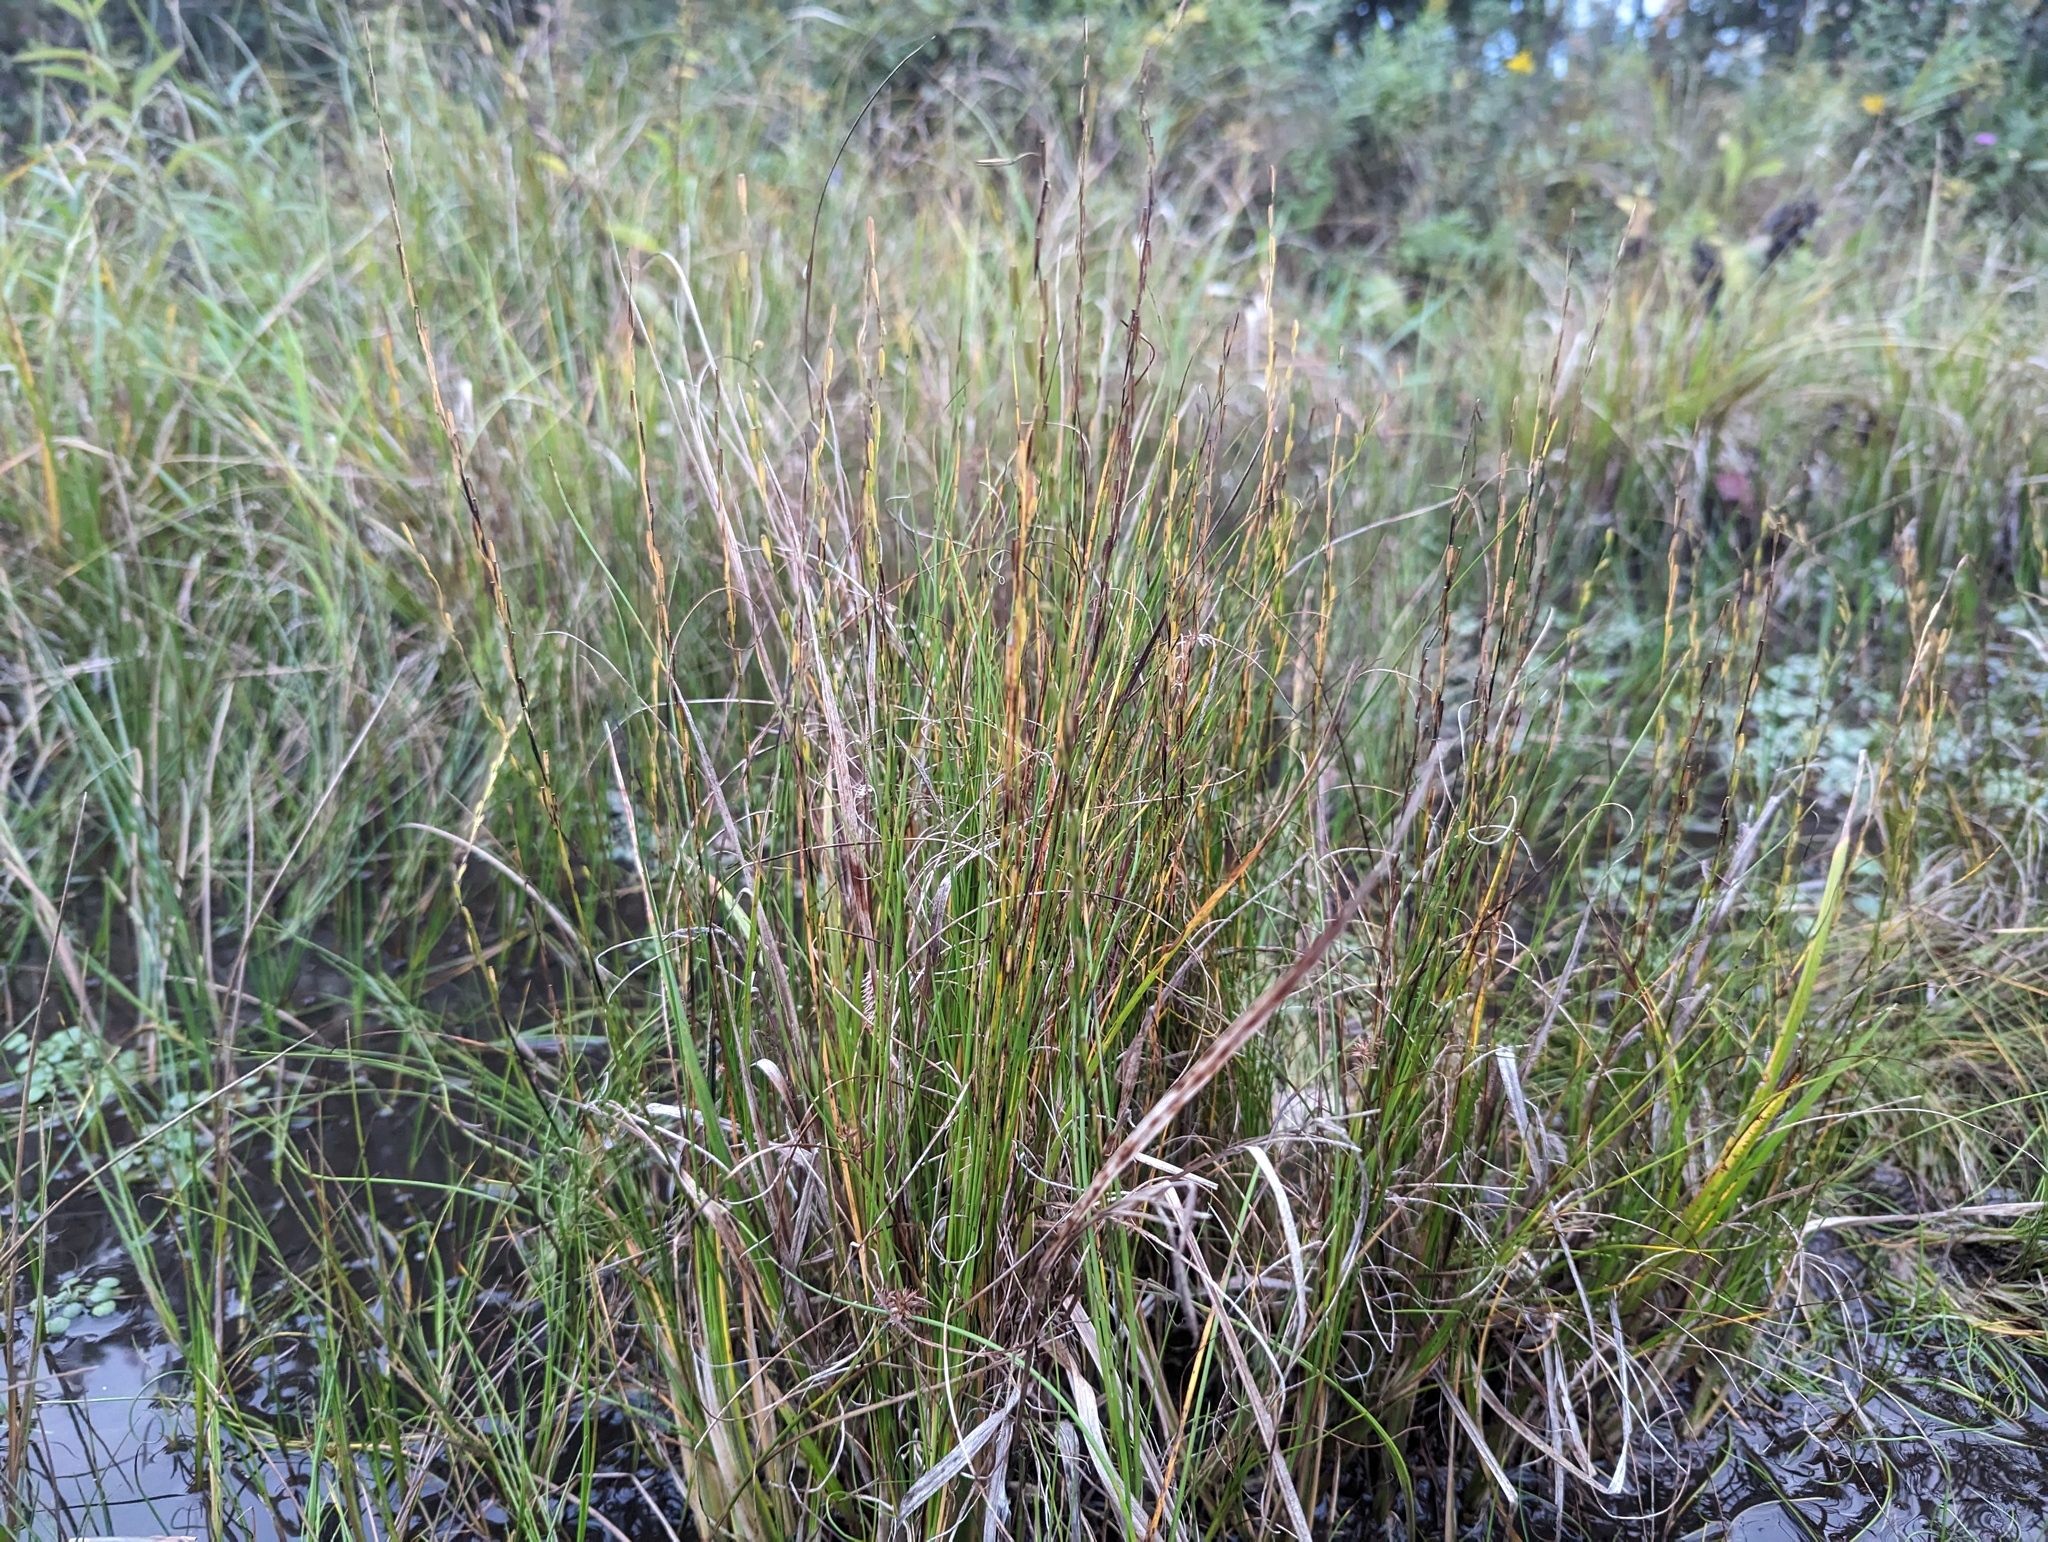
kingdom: Plantae
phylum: Tracheophyta
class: Liliopsida
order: Alismatales
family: Juncaginaceae
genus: Triglochin
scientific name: Triglochin palustris
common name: Marsh arrowgrass
